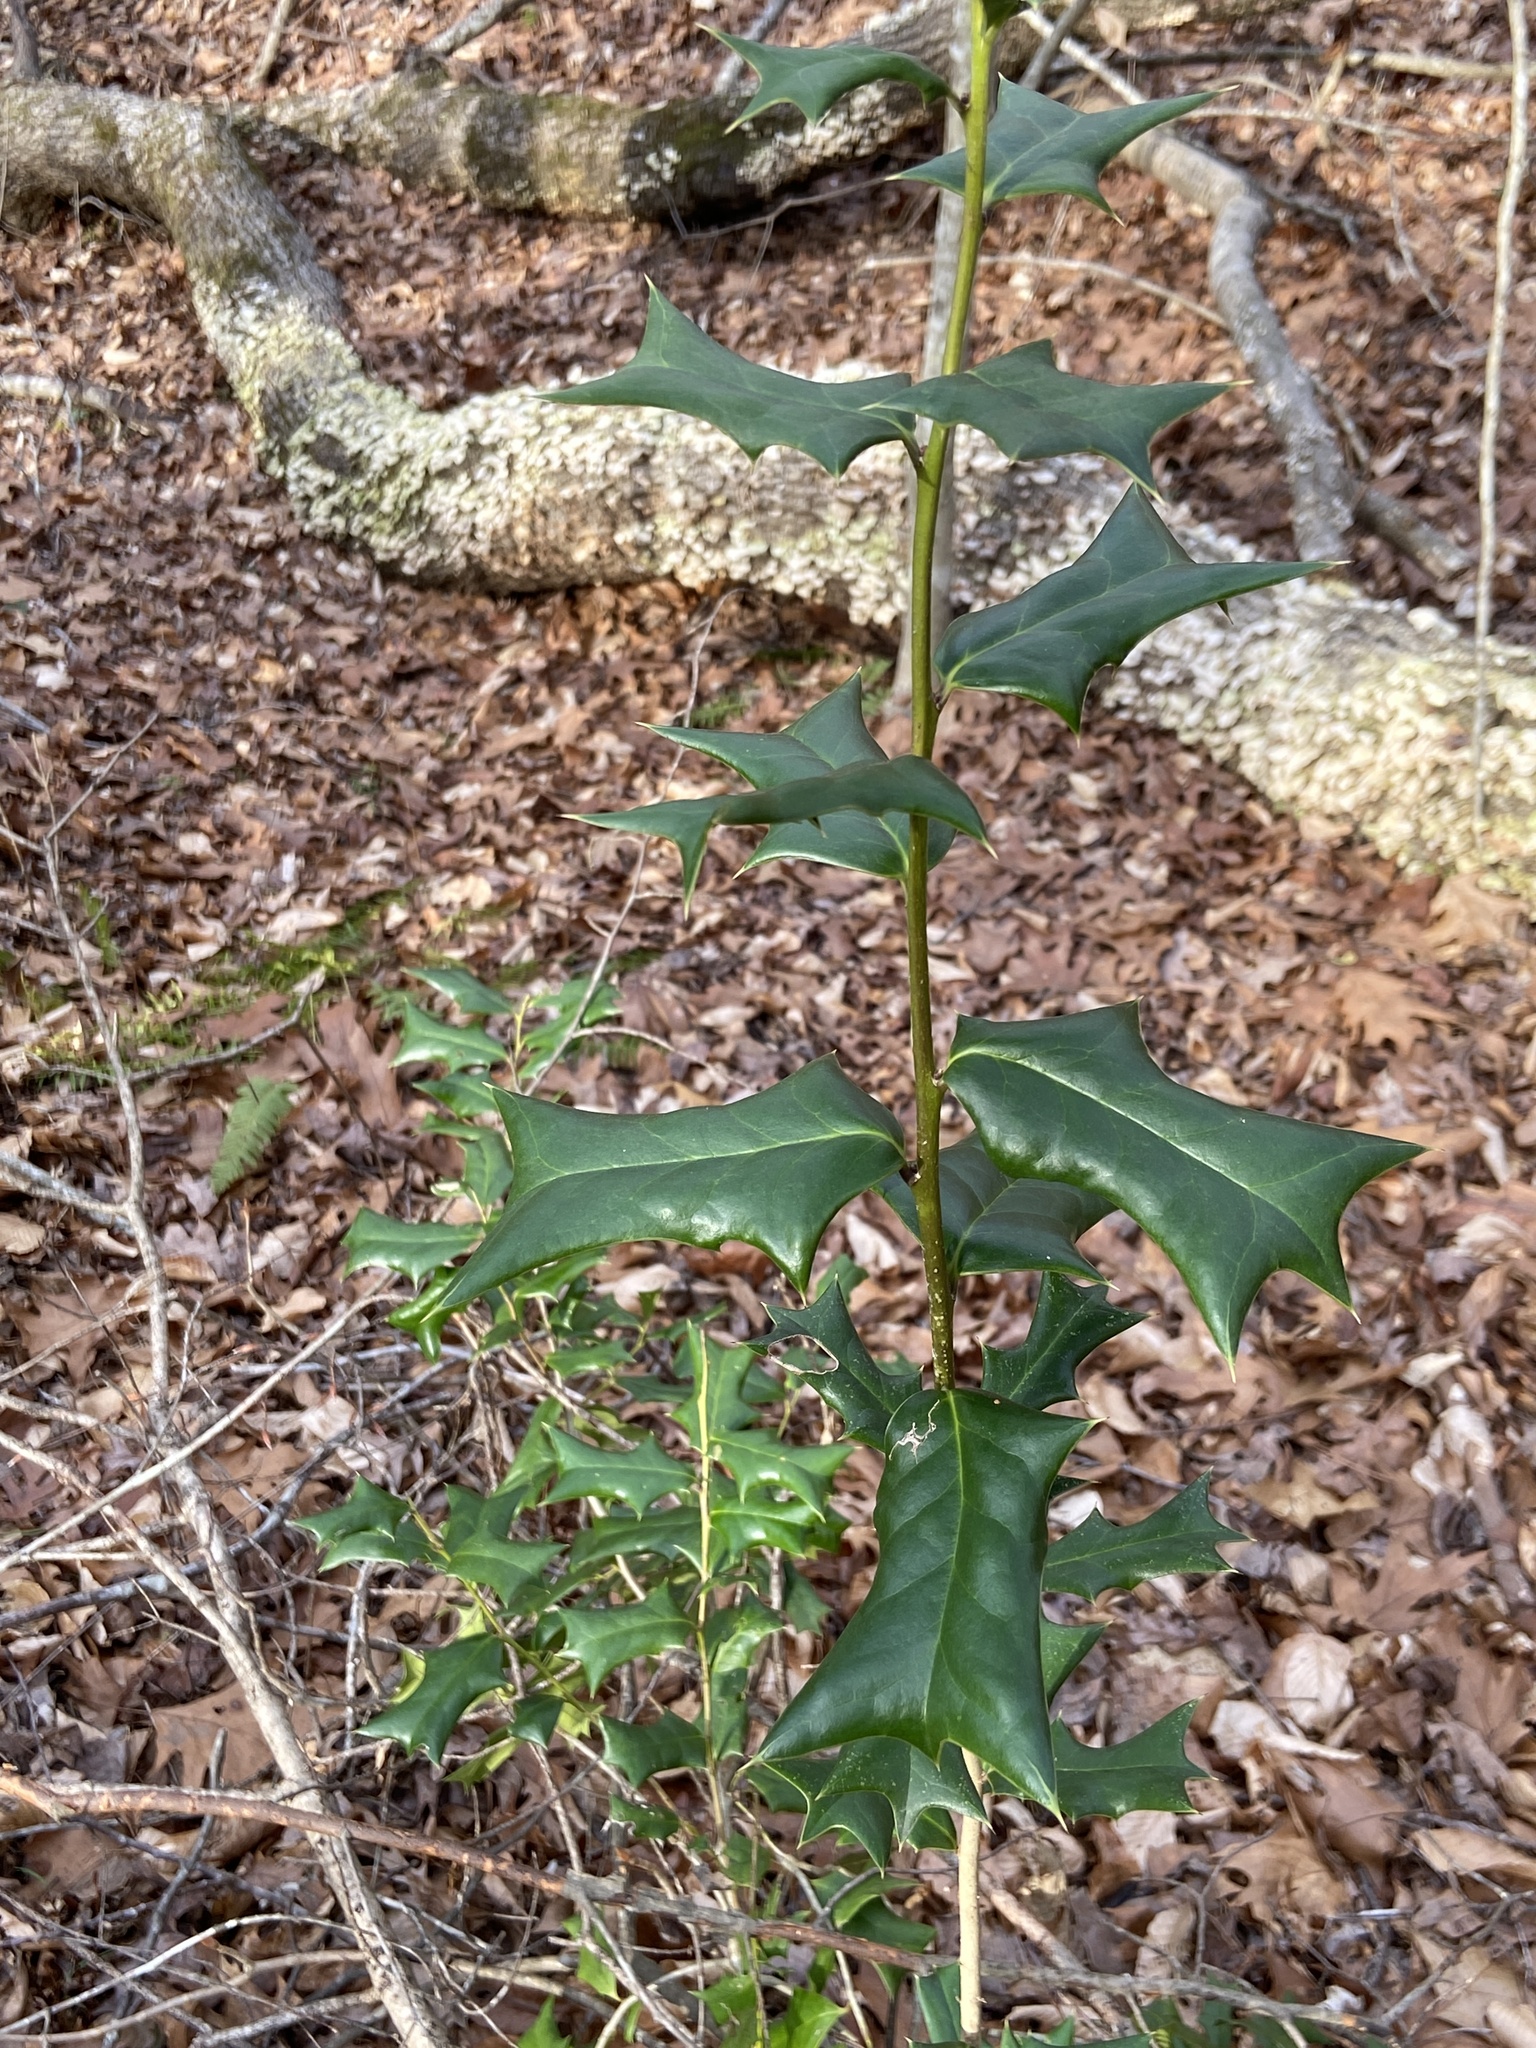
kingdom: Plantae
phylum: Tracheophyta
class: Magnoliopsida
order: Aquifoliales
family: Aquifoliaceae
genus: Ilex
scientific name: Ilex cornuta
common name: Chinese holly
